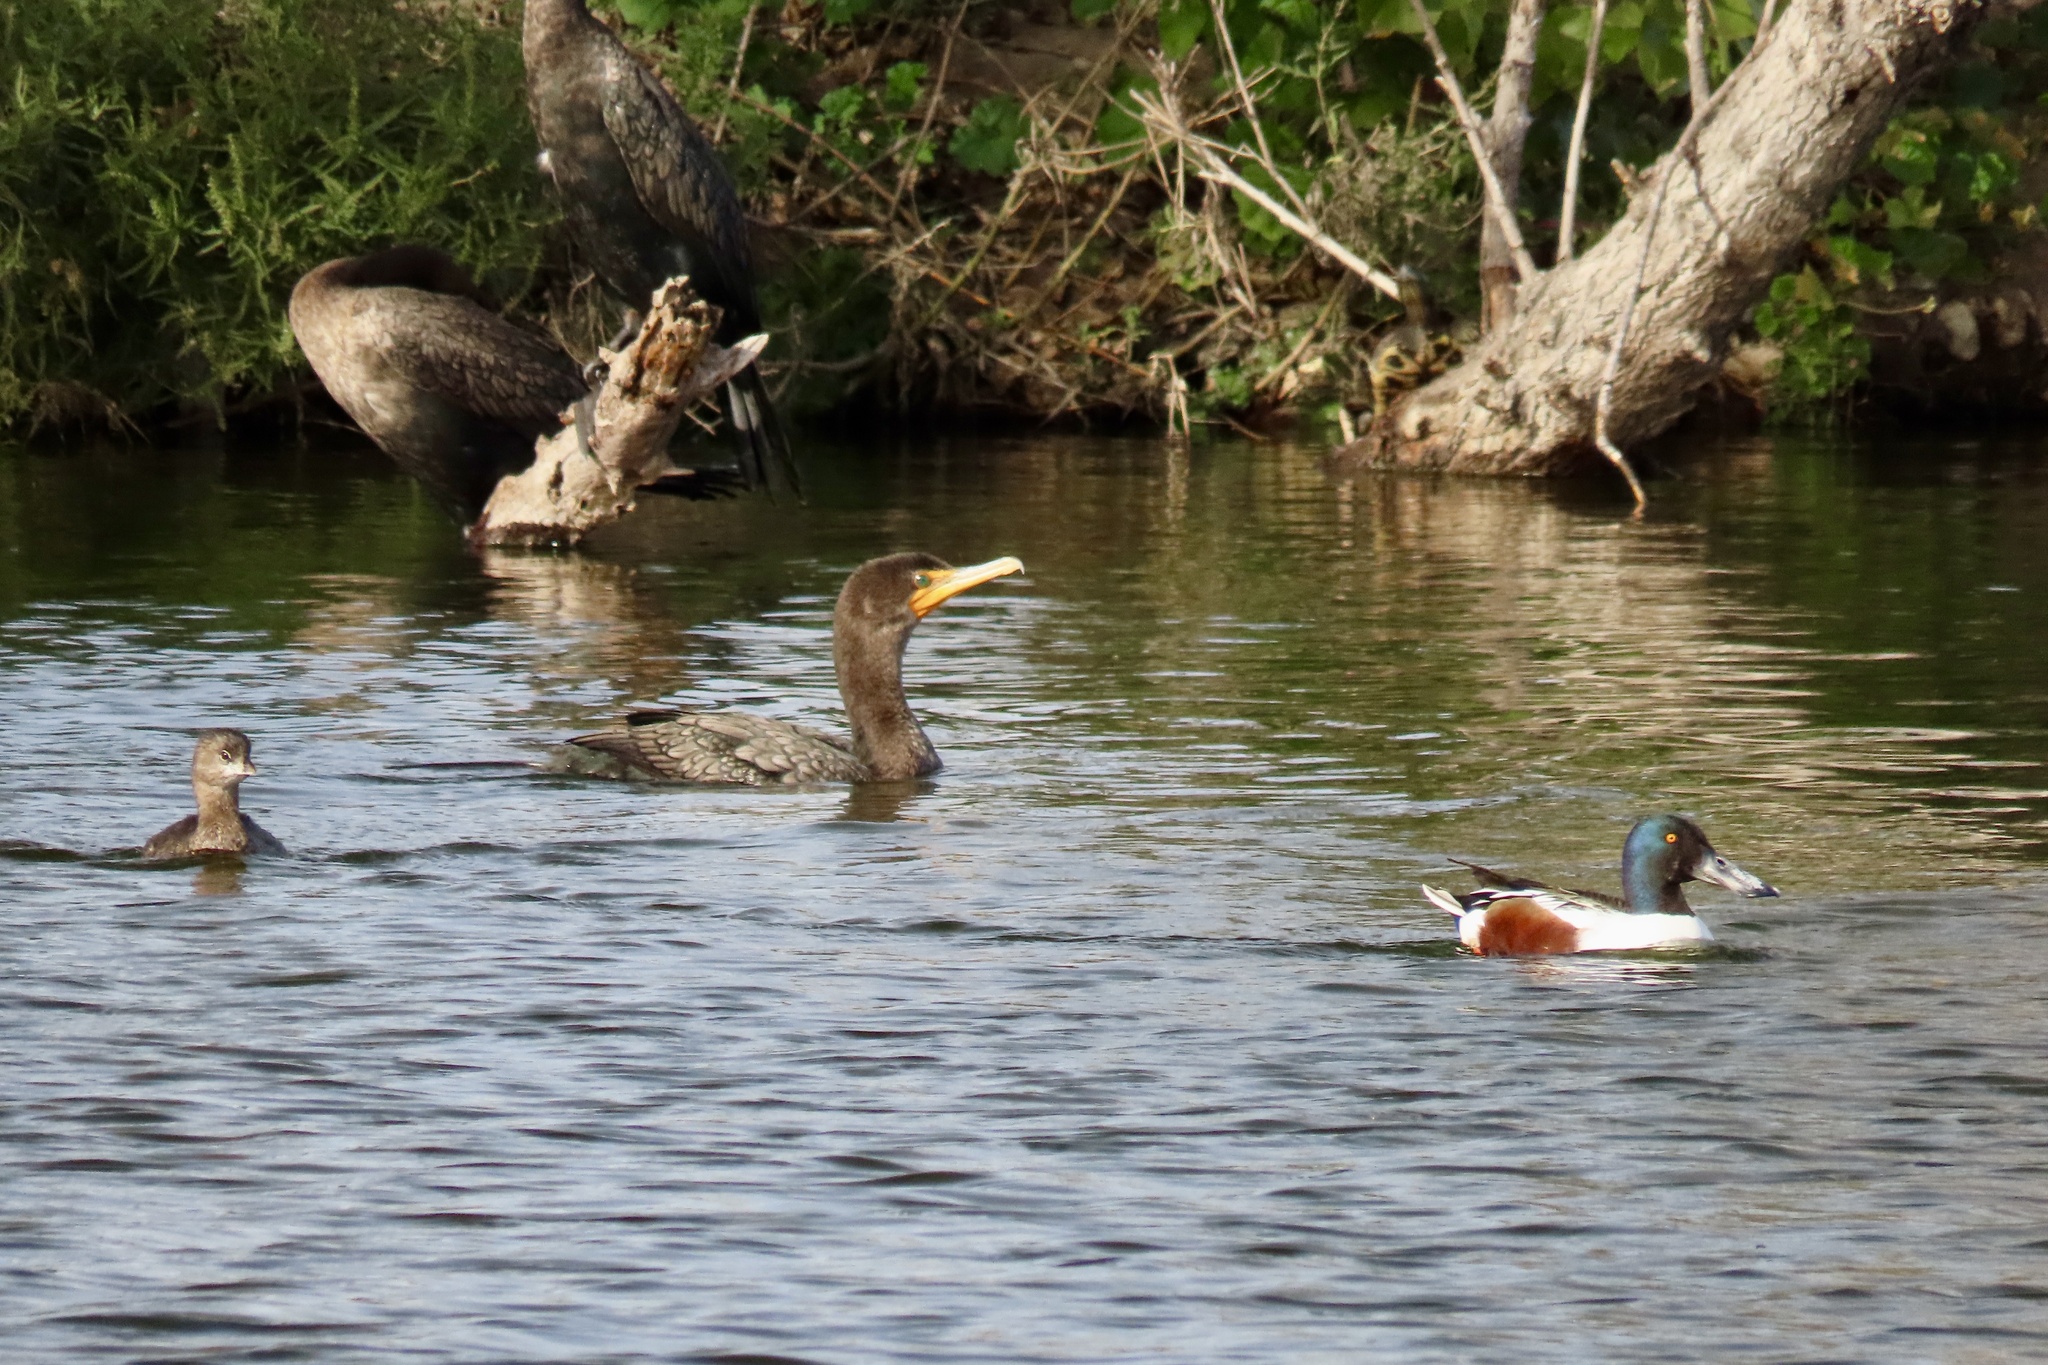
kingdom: Animalia
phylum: Chordata
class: Aves
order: Suliformes
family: Phalacrocoracidae
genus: Phalacrocorax
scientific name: Phalacrocorax auritus
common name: Double-crested cormorant
